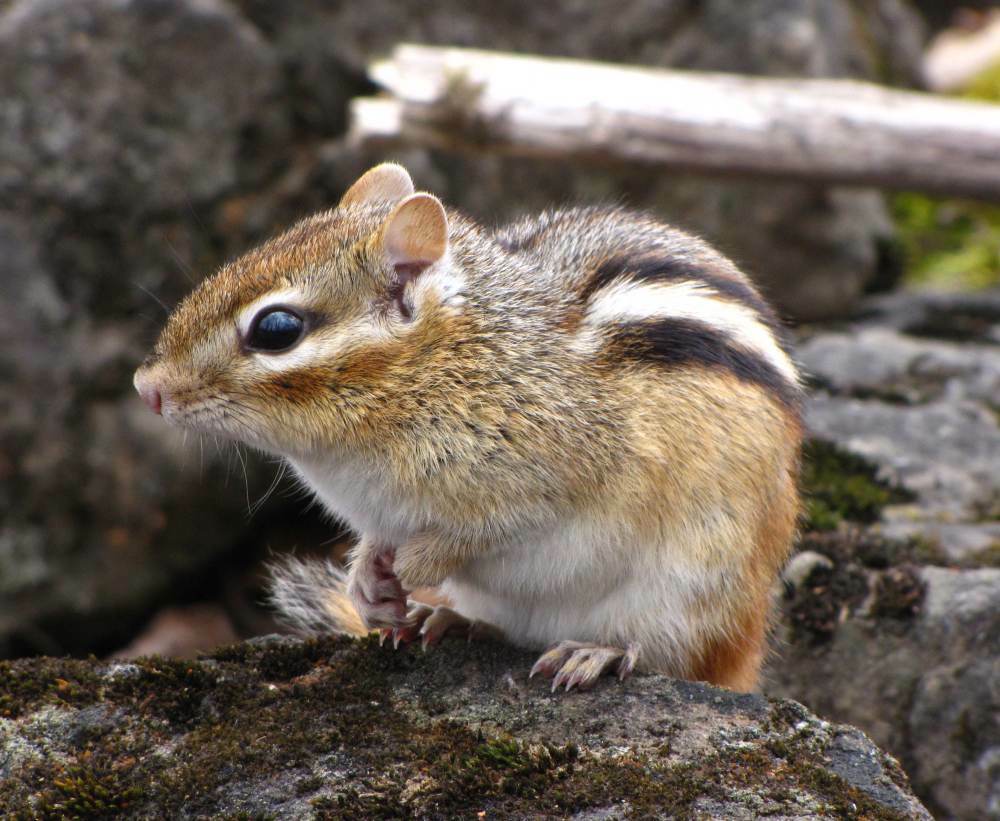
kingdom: Animalia
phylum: Chordata
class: Mammalia
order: Rodentia
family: Sciuridae
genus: Tamias
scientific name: Tamias striatus
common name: Eastern chipmunk
